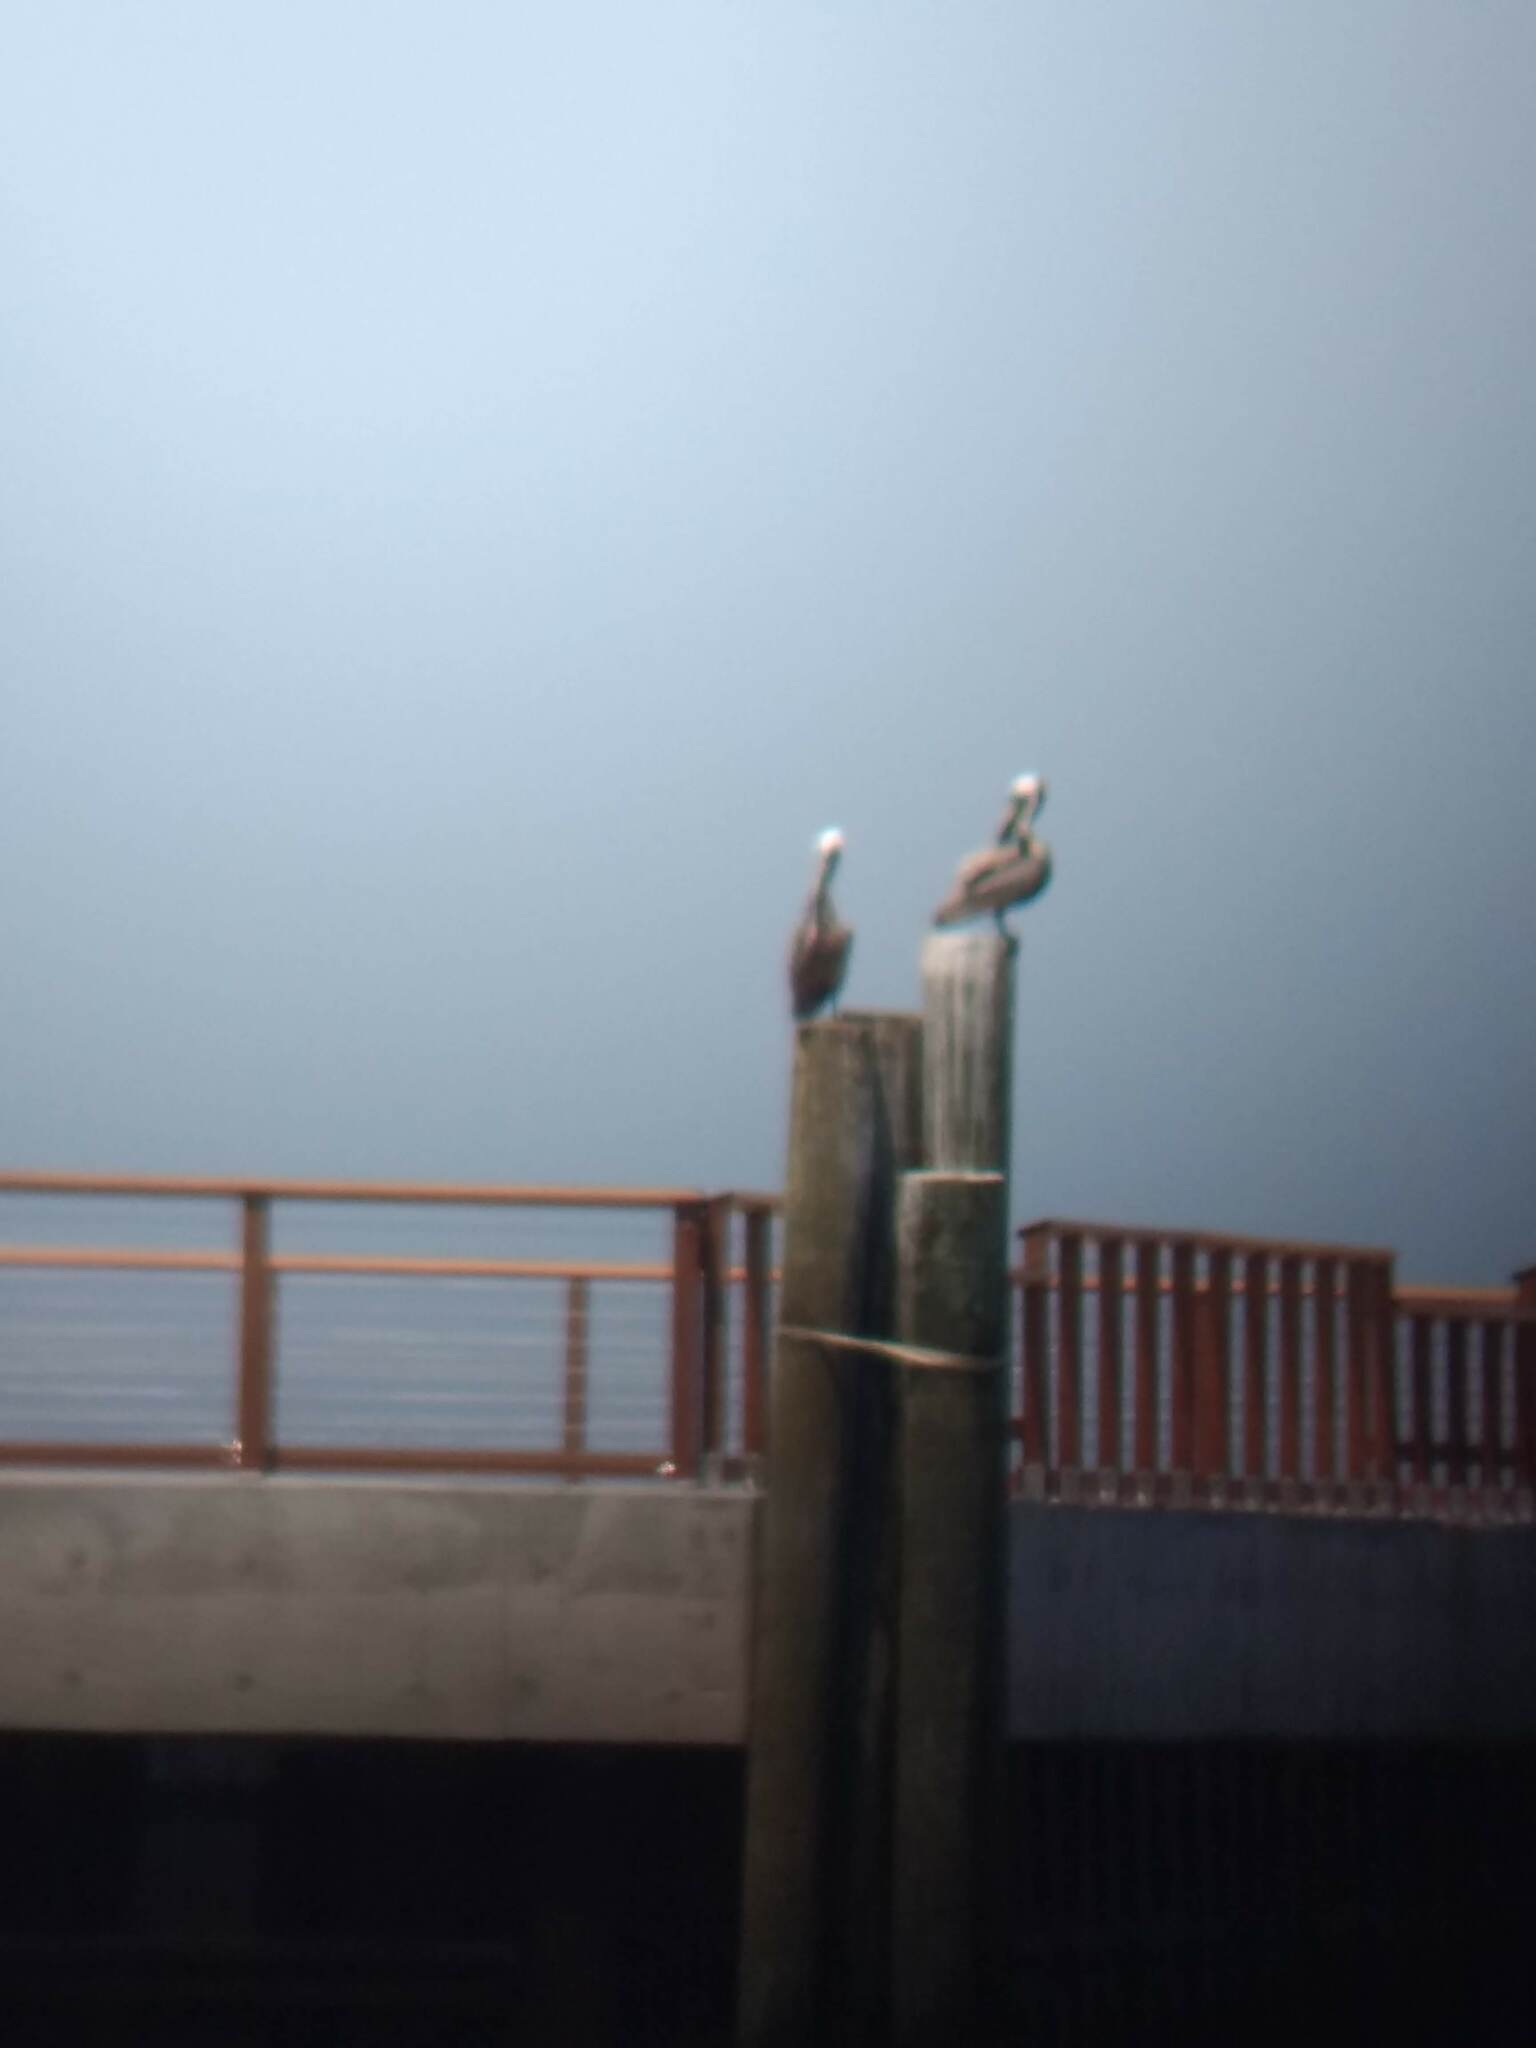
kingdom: Animalia
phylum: Chordata
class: Aves
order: Pelecaniformes
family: Pelecanidae
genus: Pelecanus
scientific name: Pelecanus occidentalis
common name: Brown pelican
